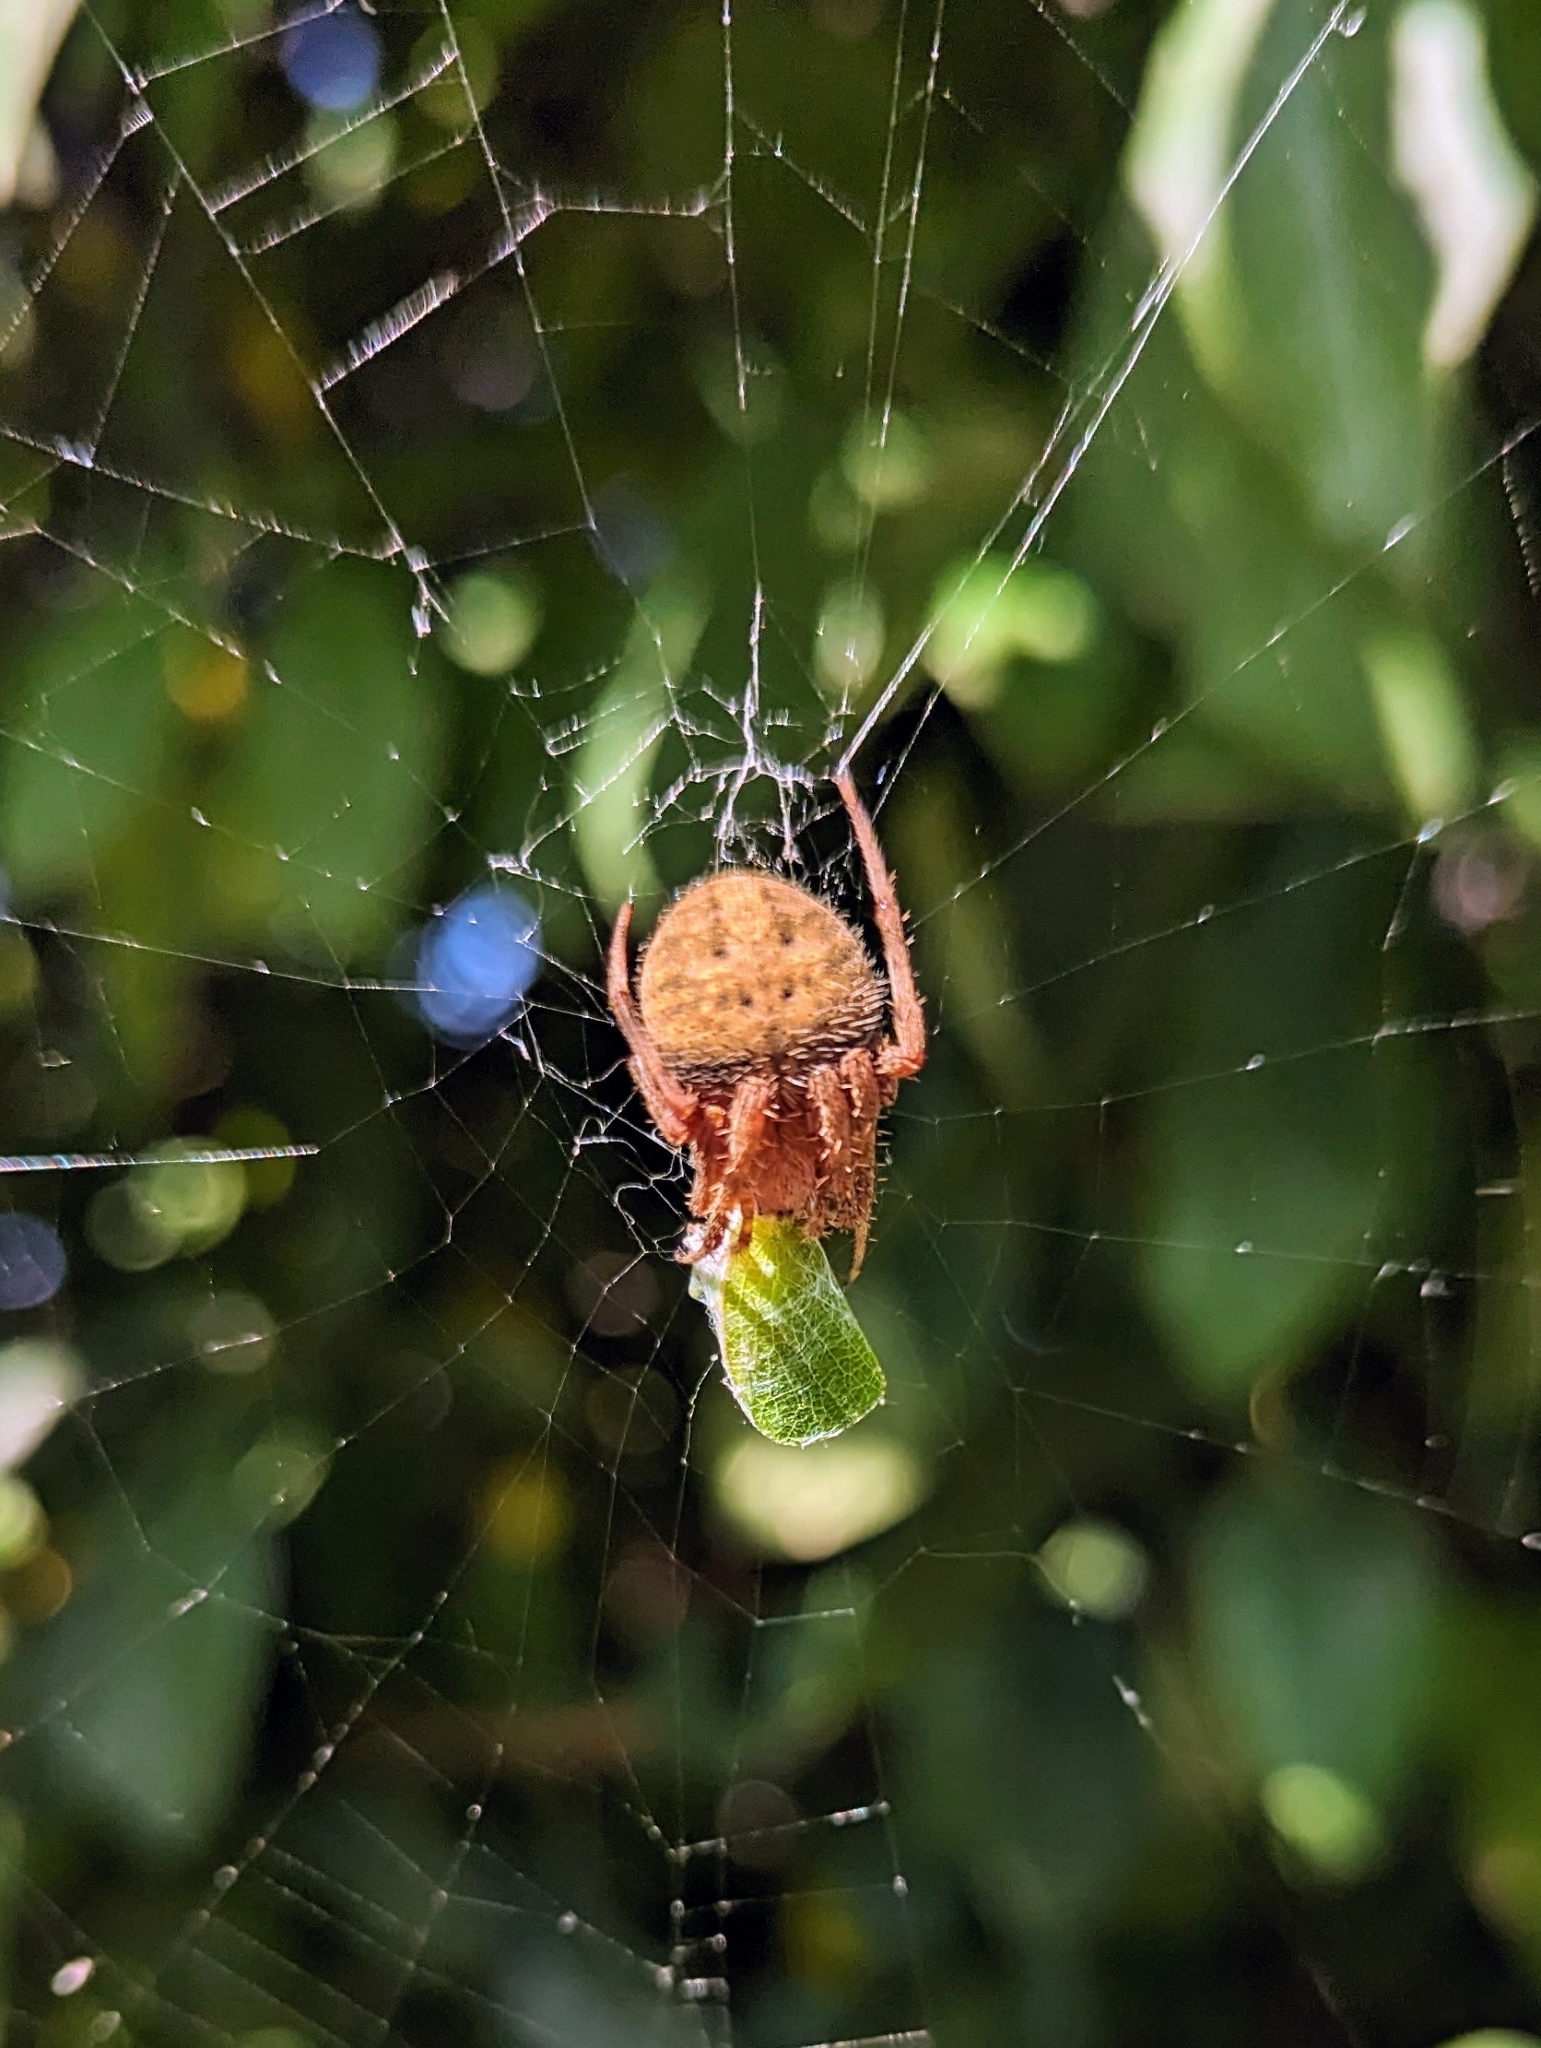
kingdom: Animalia
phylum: Arthropoda
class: Arachnida
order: Araneae
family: Araneidae
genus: Neoscona
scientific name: Neoscona crucifera
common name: Spotted orbweaver
